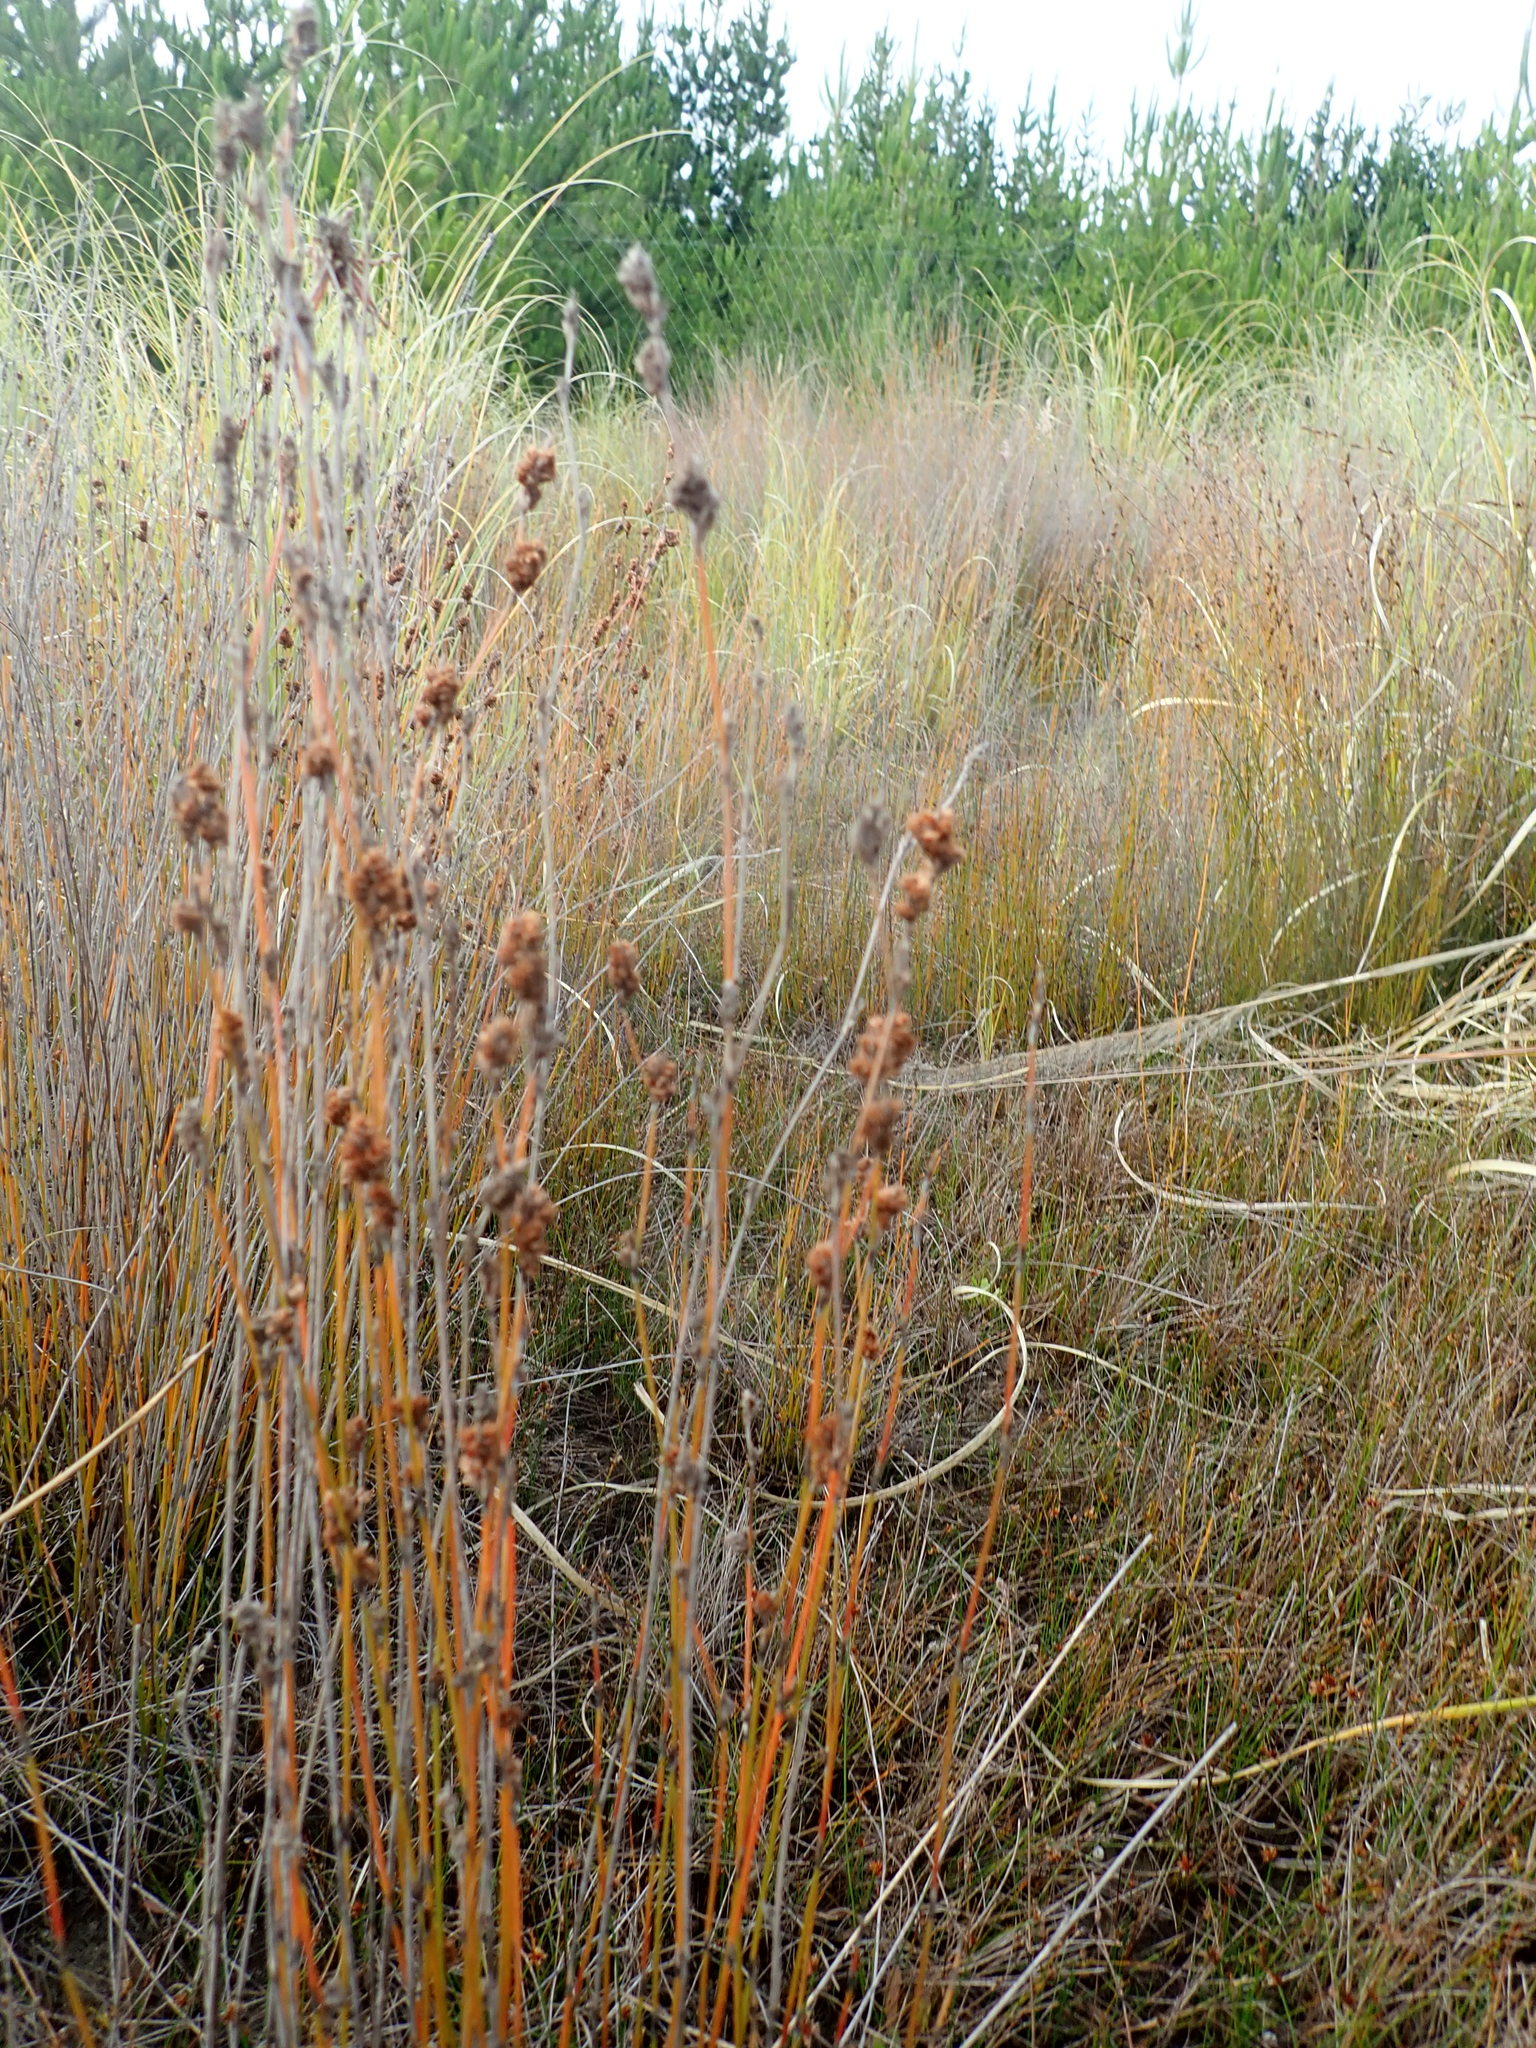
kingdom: Plantae
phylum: Tracheophyta
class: Liliopsida
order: Poales
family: Restionaceae
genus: Apodasmia
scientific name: Apodasmia similis
